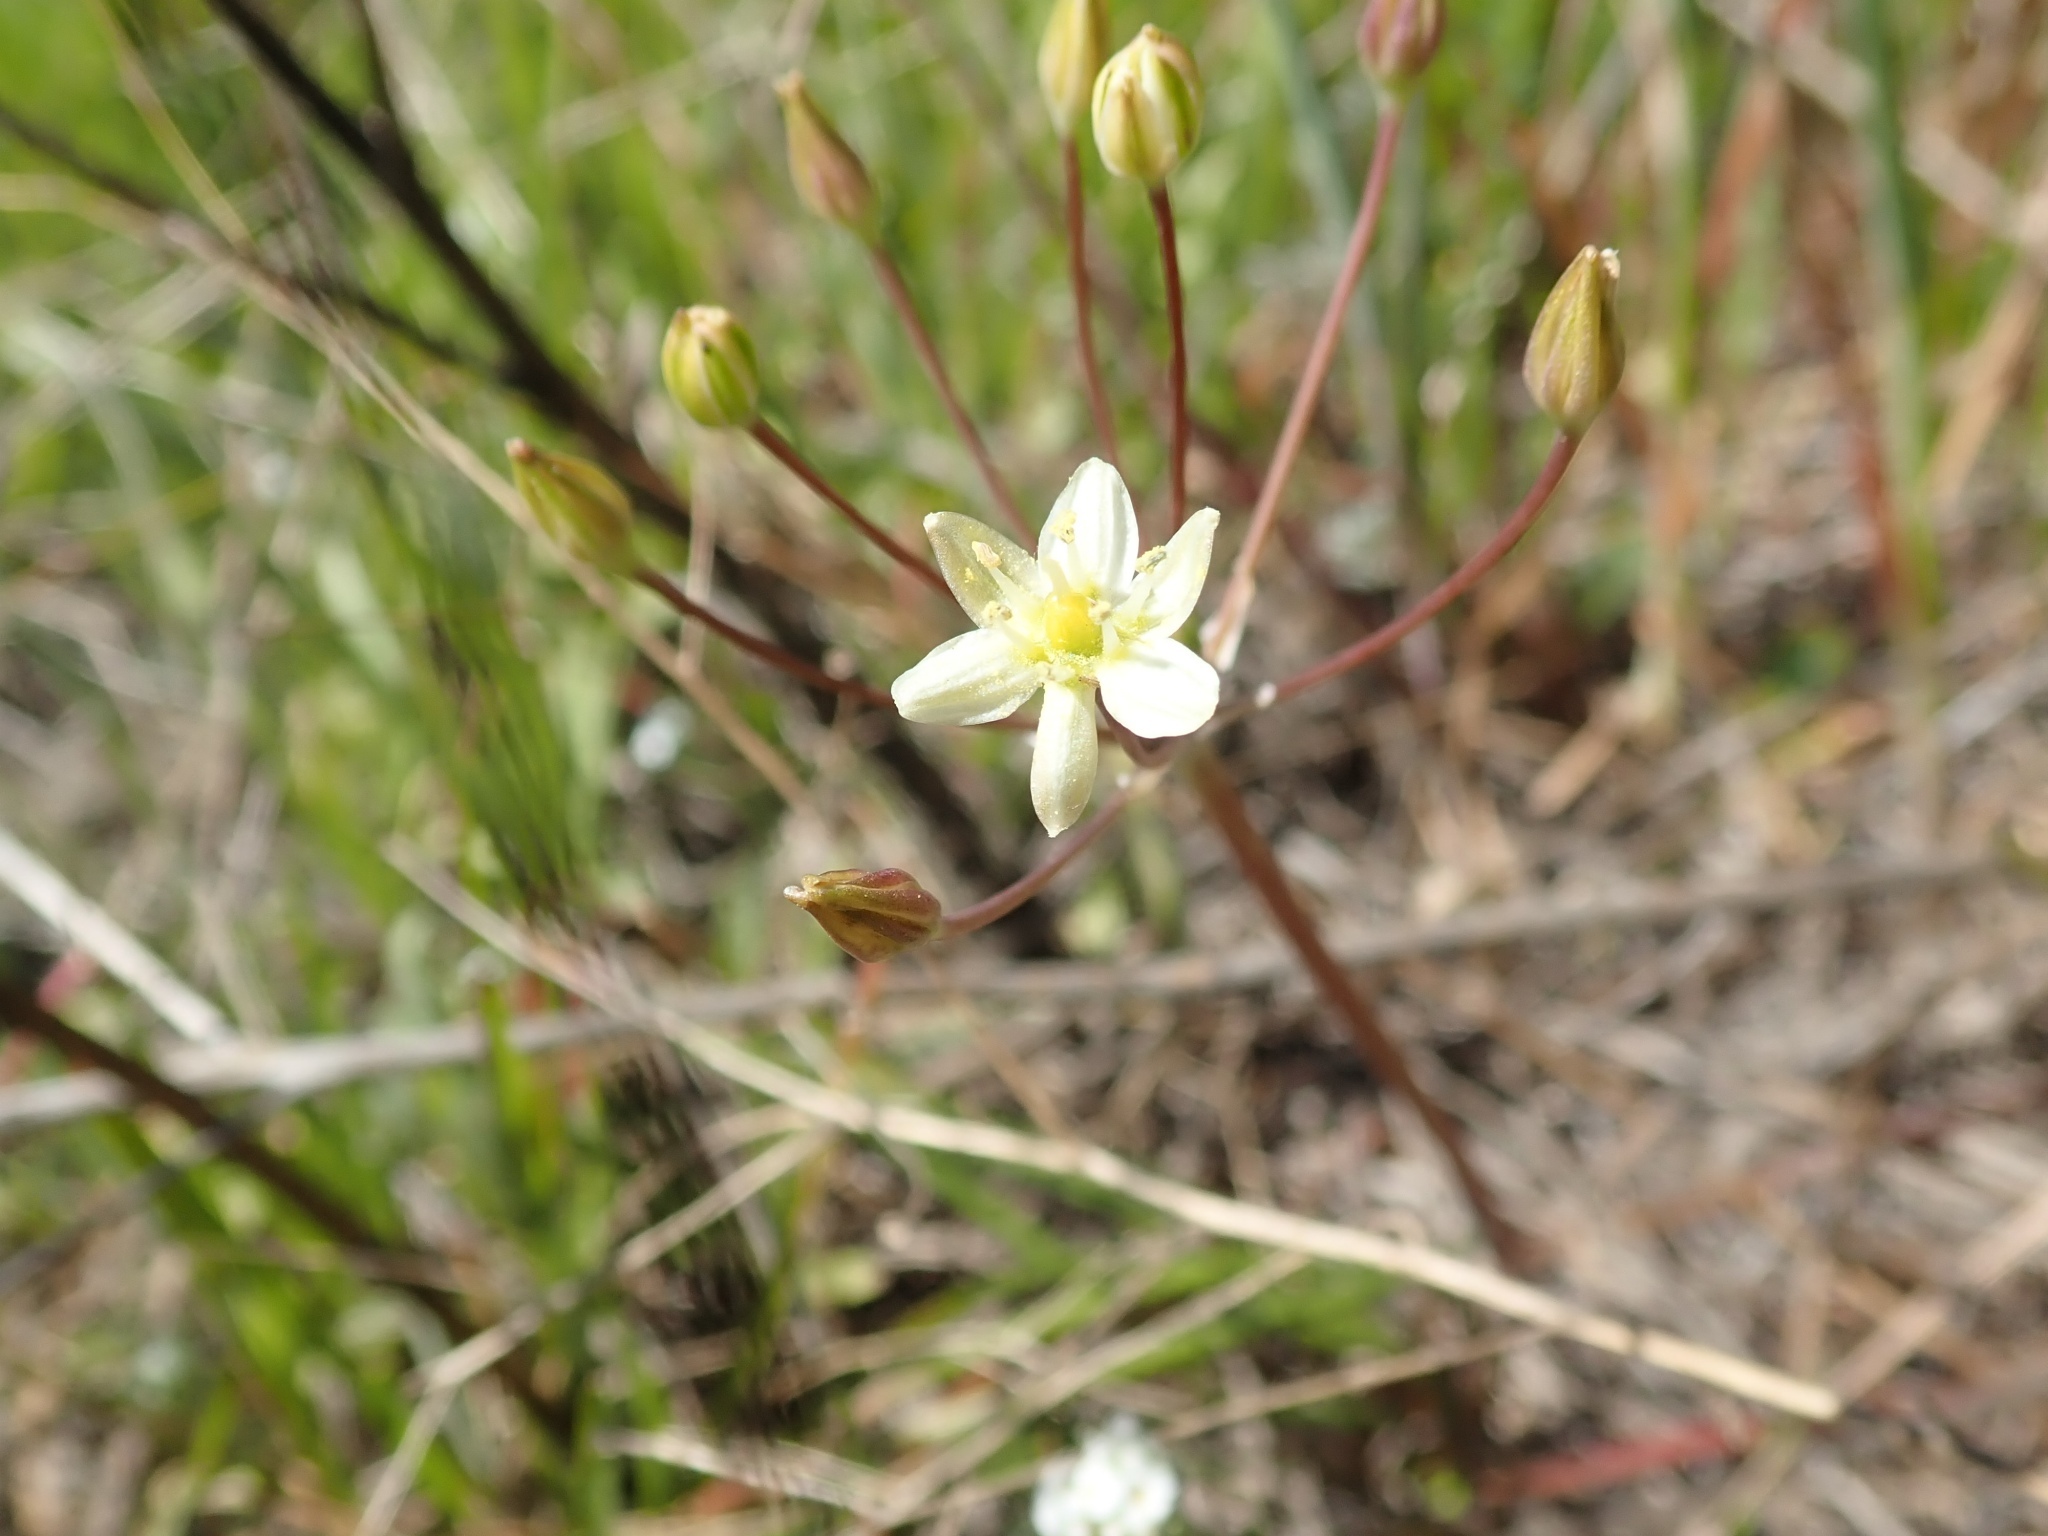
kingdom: Plantae
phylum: Tracheophyta
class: Liliopsida
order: Asparagales
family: Asparagaceae
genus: Muilla
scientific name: Muilla maritima
